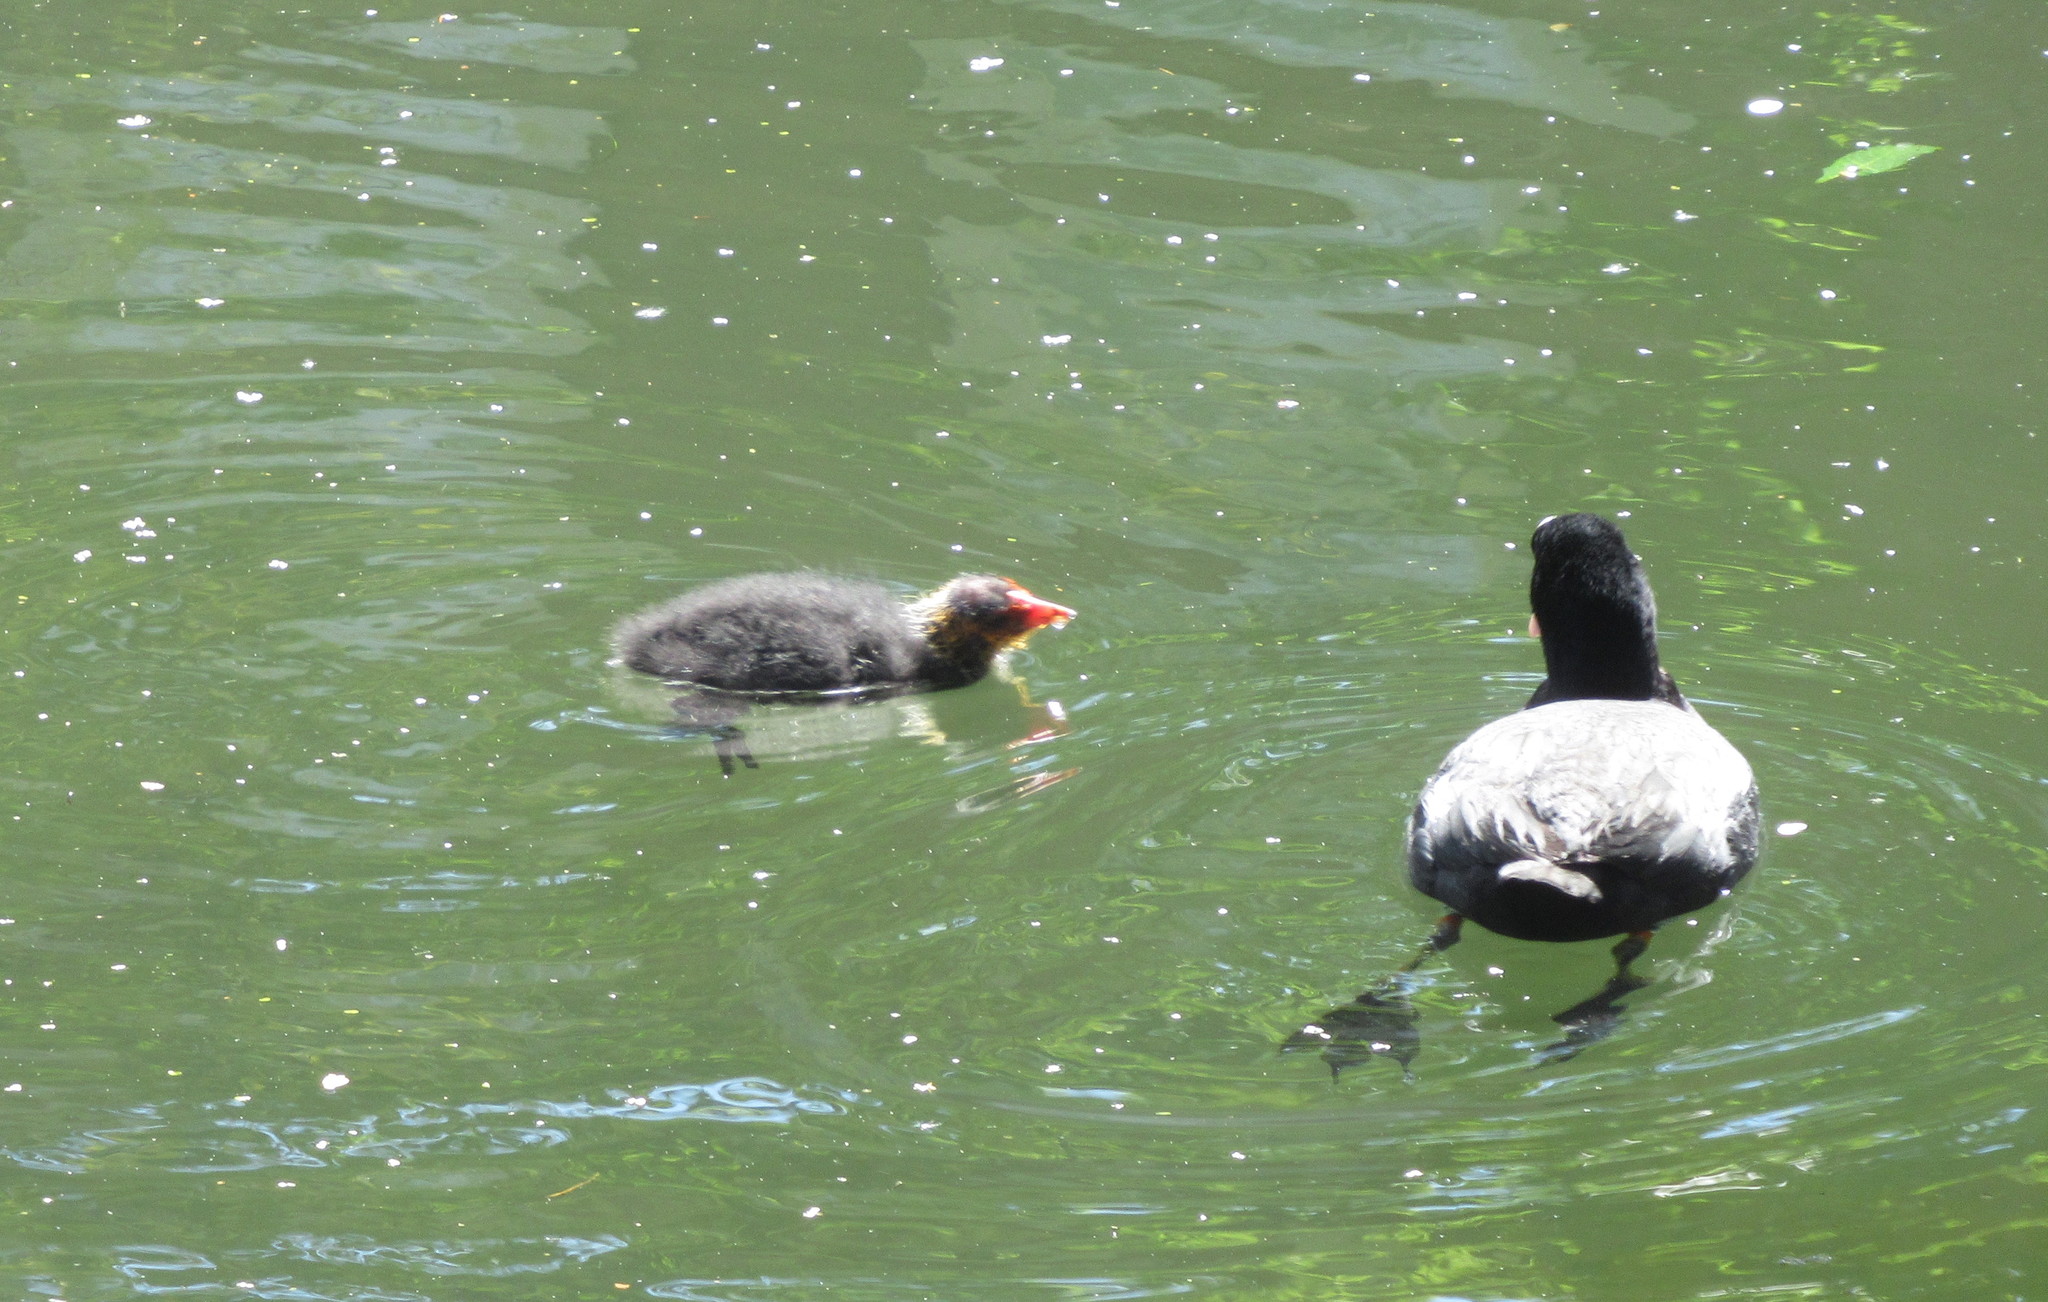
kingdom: Animalia
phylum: Chordata
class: Aves
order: Gruiformes
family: Rallidae
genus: Fulica
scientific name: Fulica atra
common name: Eurasian coot
